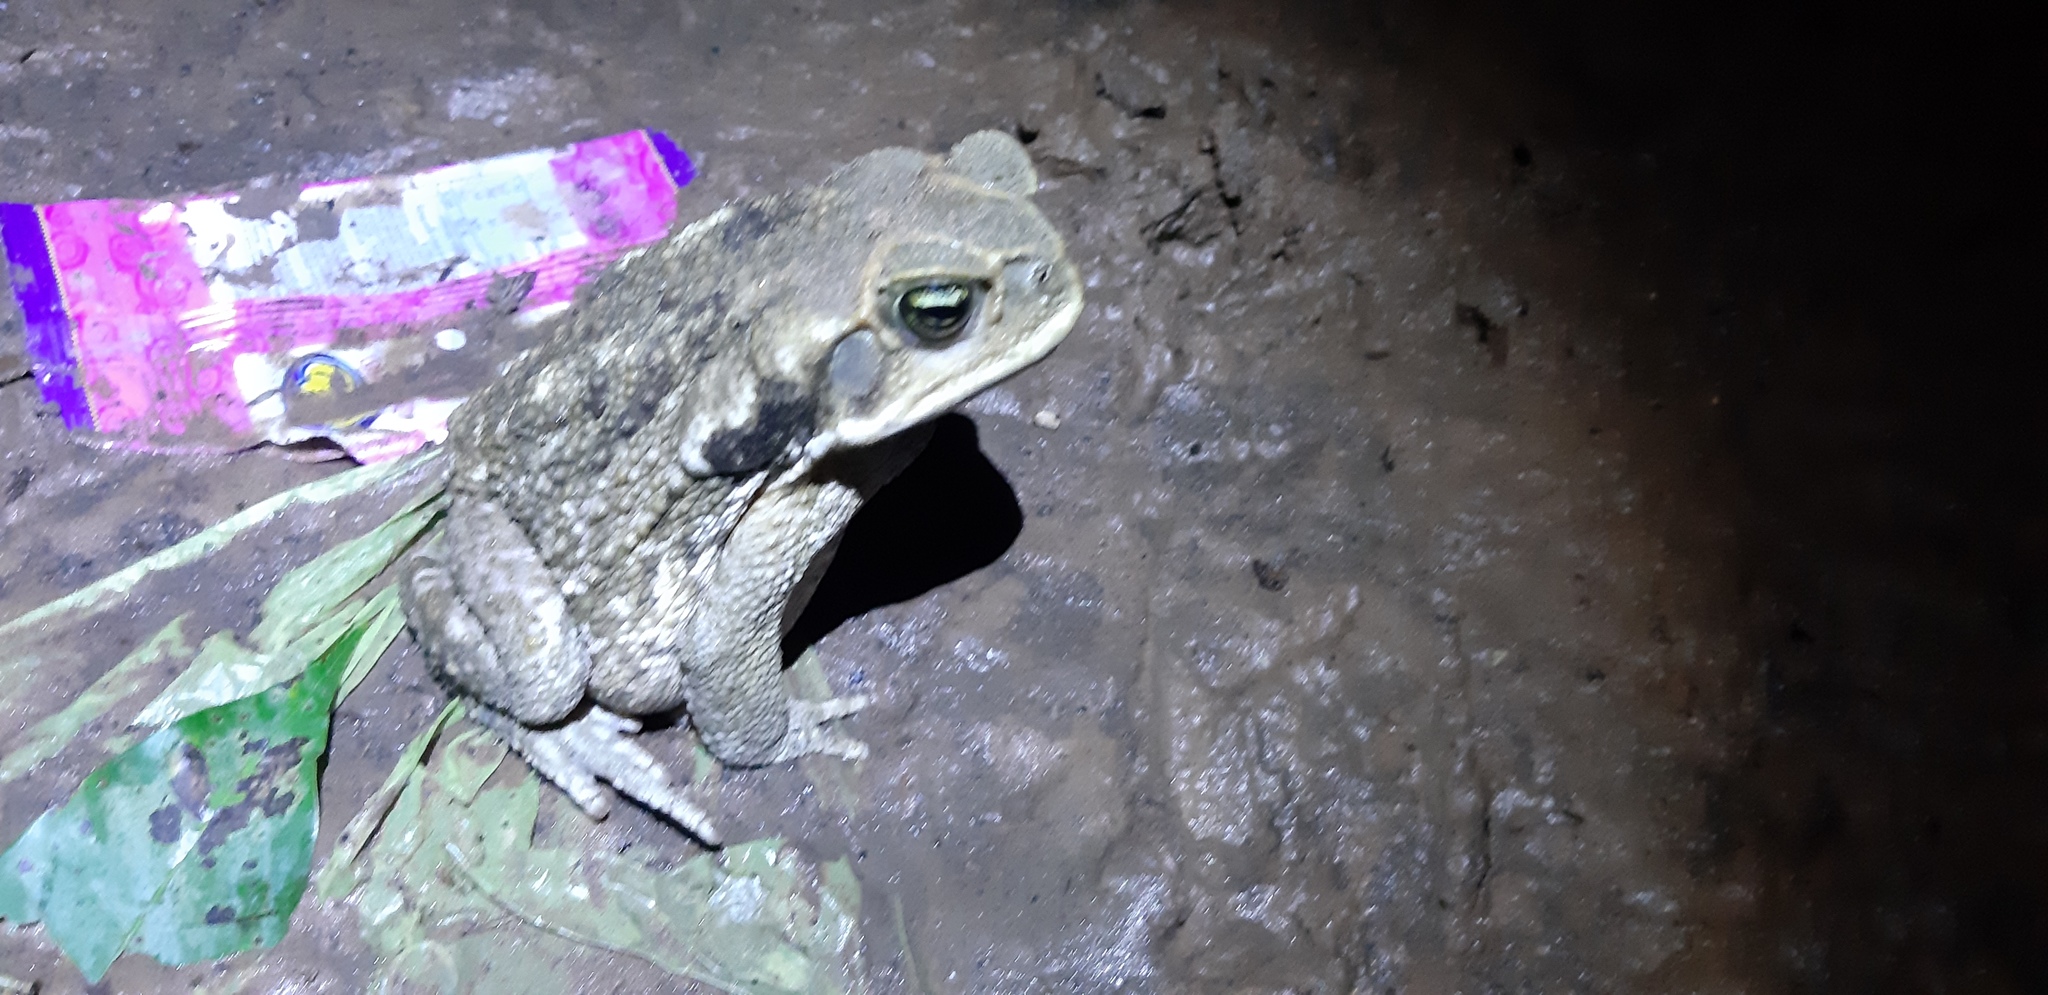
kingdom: Animalia
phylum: Chordata
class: Amphibia
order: Anura
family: Bufonidae
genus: Rhinella
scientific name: Rhinella marina
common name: Cane toad
